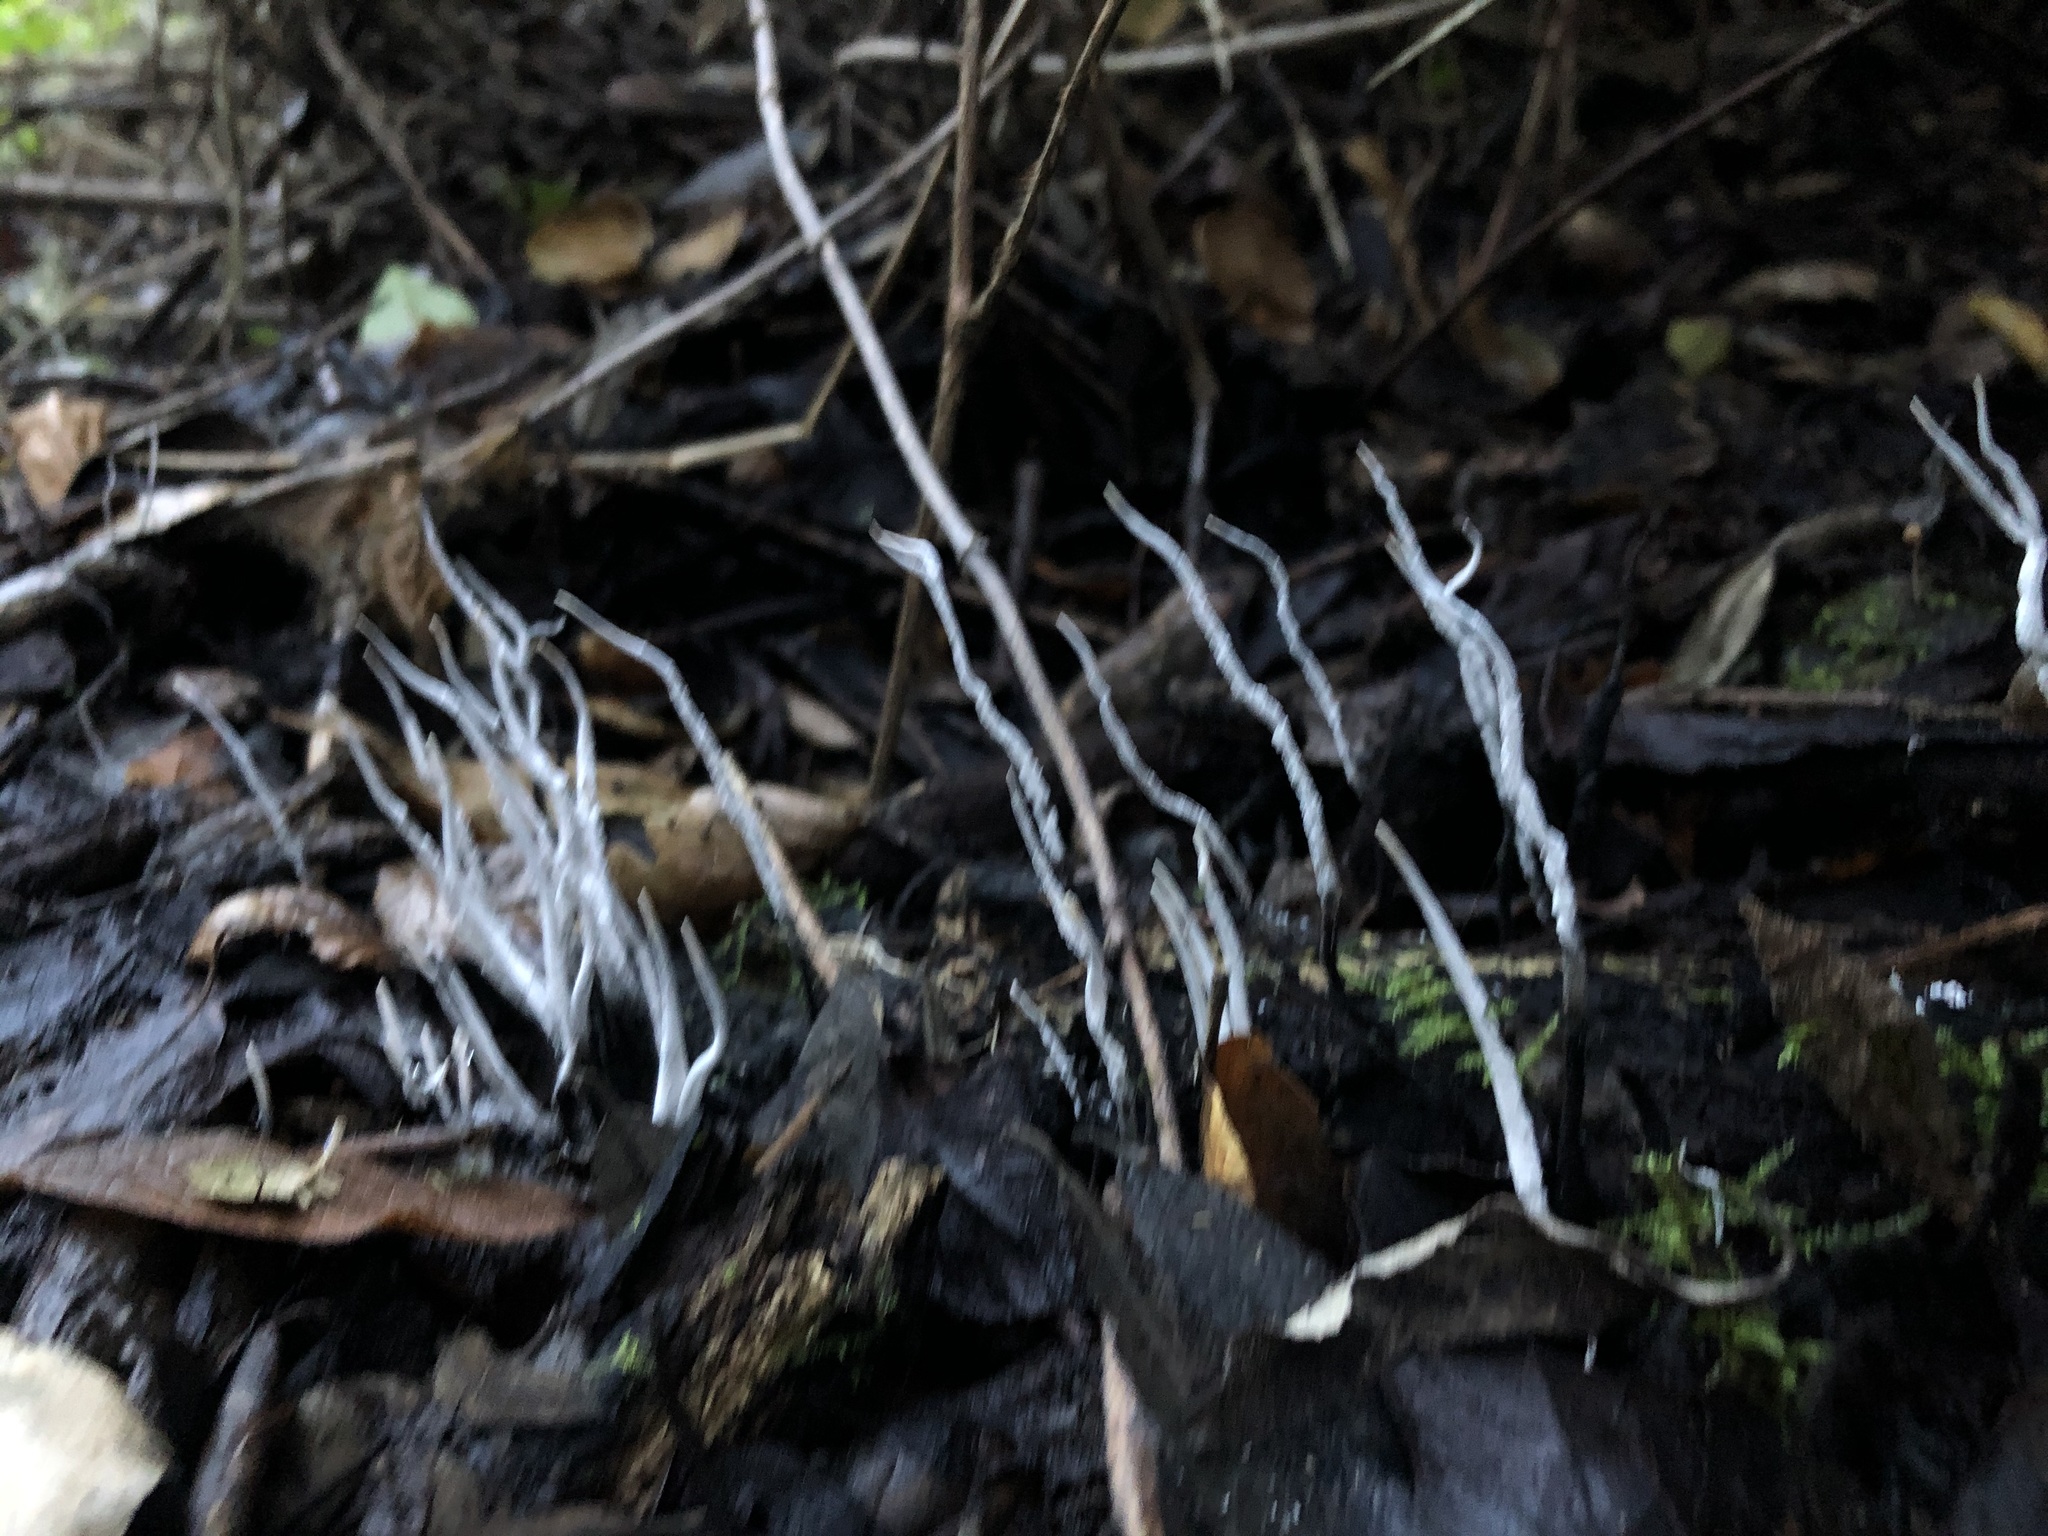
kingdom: Fungi
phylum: Ascomycota
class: Sordariomycetes
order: Xylariales
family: Xylariaceae
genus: Xylaria
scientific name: Xylaria hypoxylon
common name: Candle-snuff fungus
